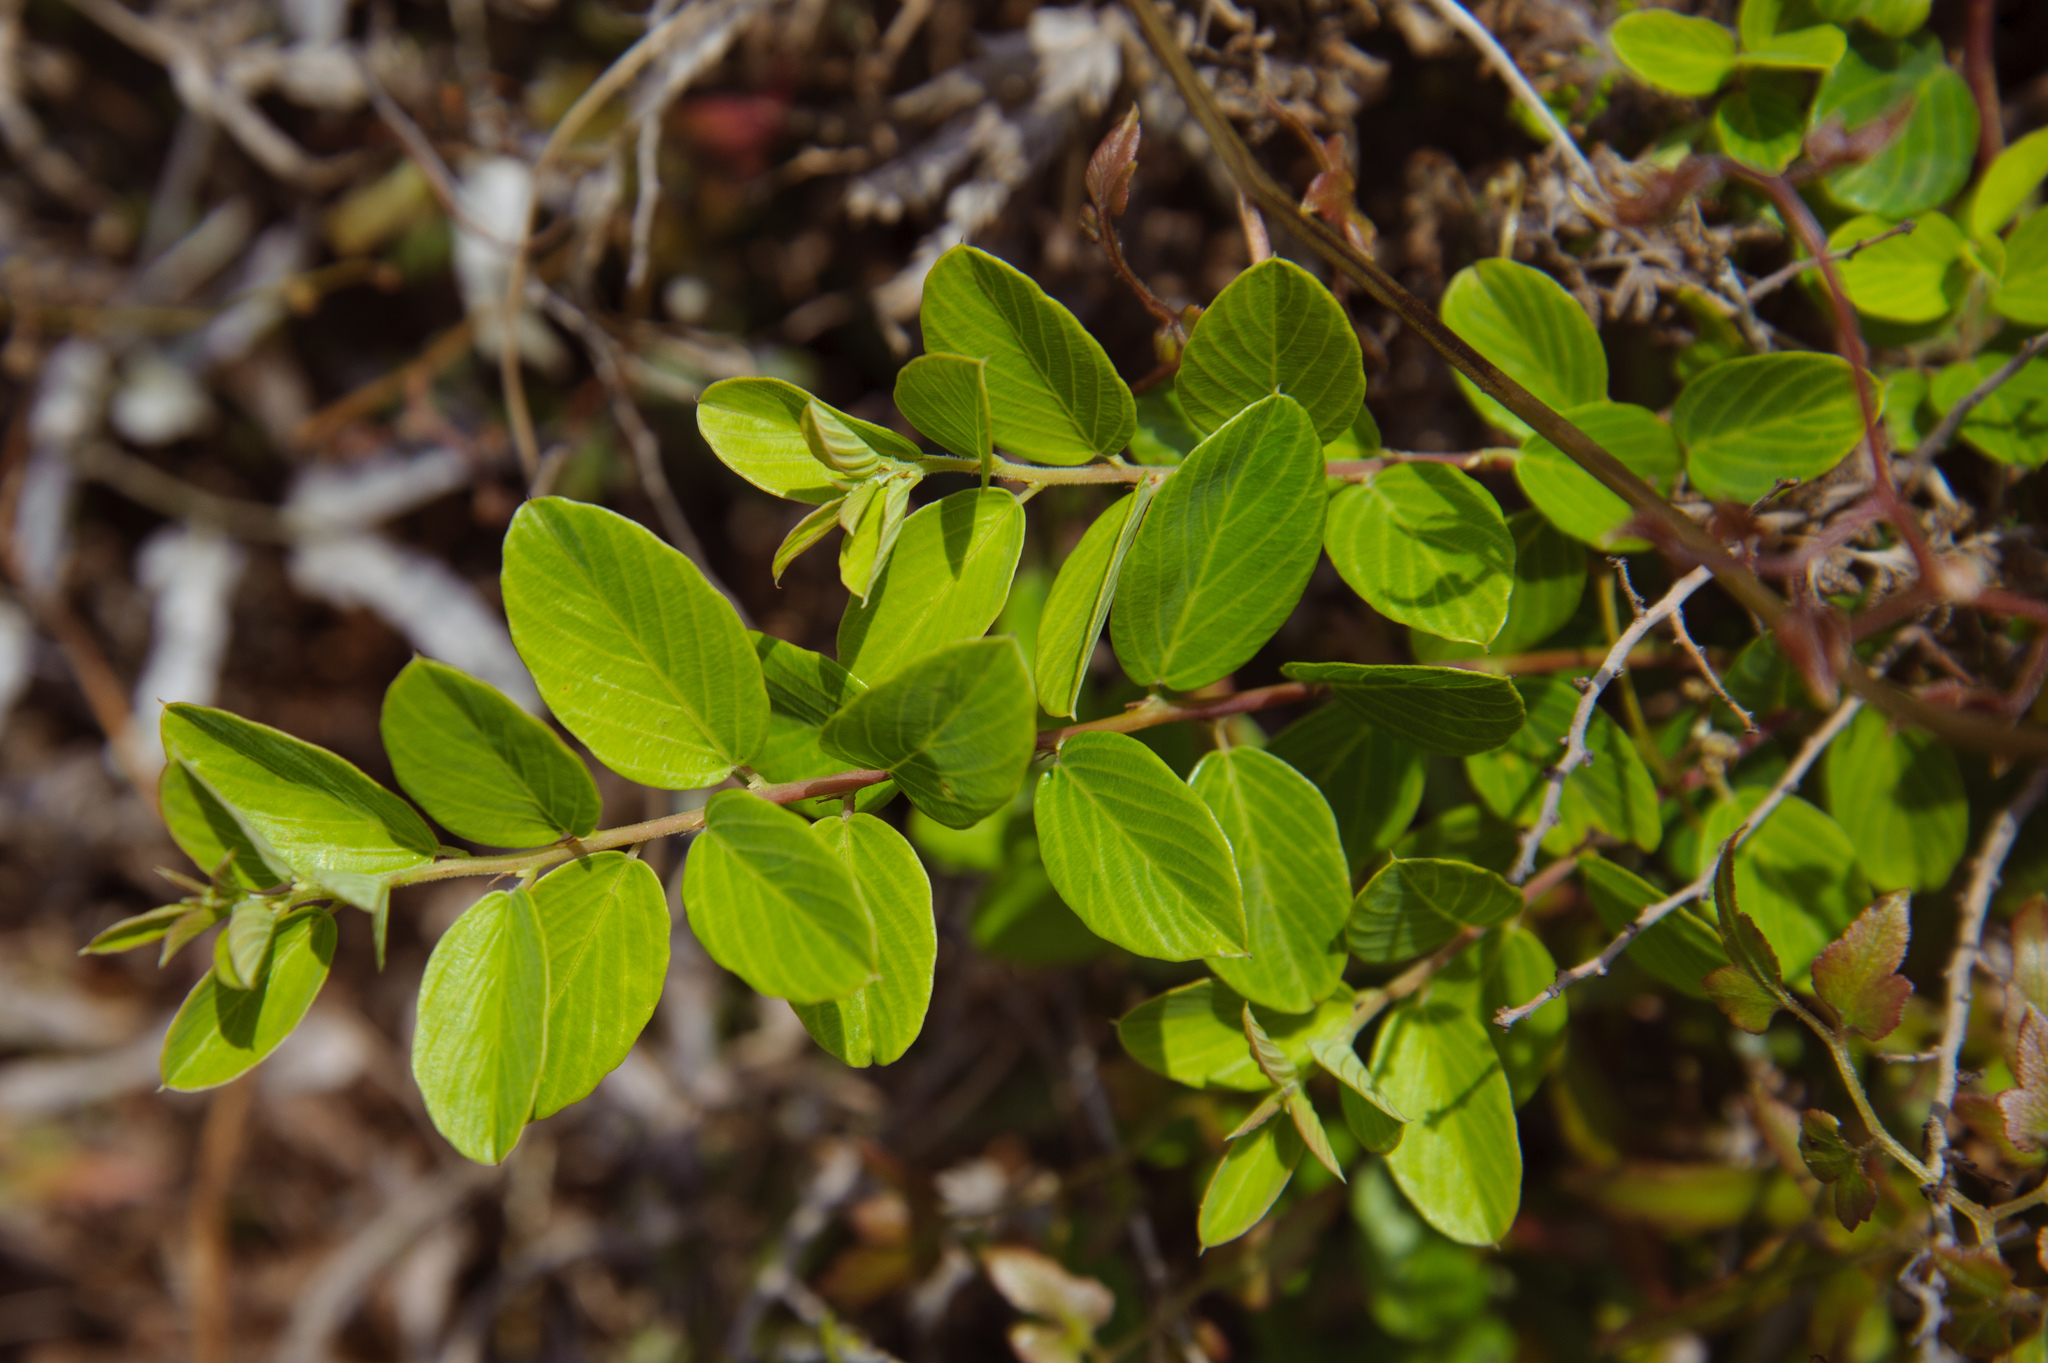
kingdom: Plantae
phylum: Tracheophyta
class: Magnoliopsida
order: Rosales
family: Rhamnaceae
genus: Berchemia
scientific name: Berchemia lineata
